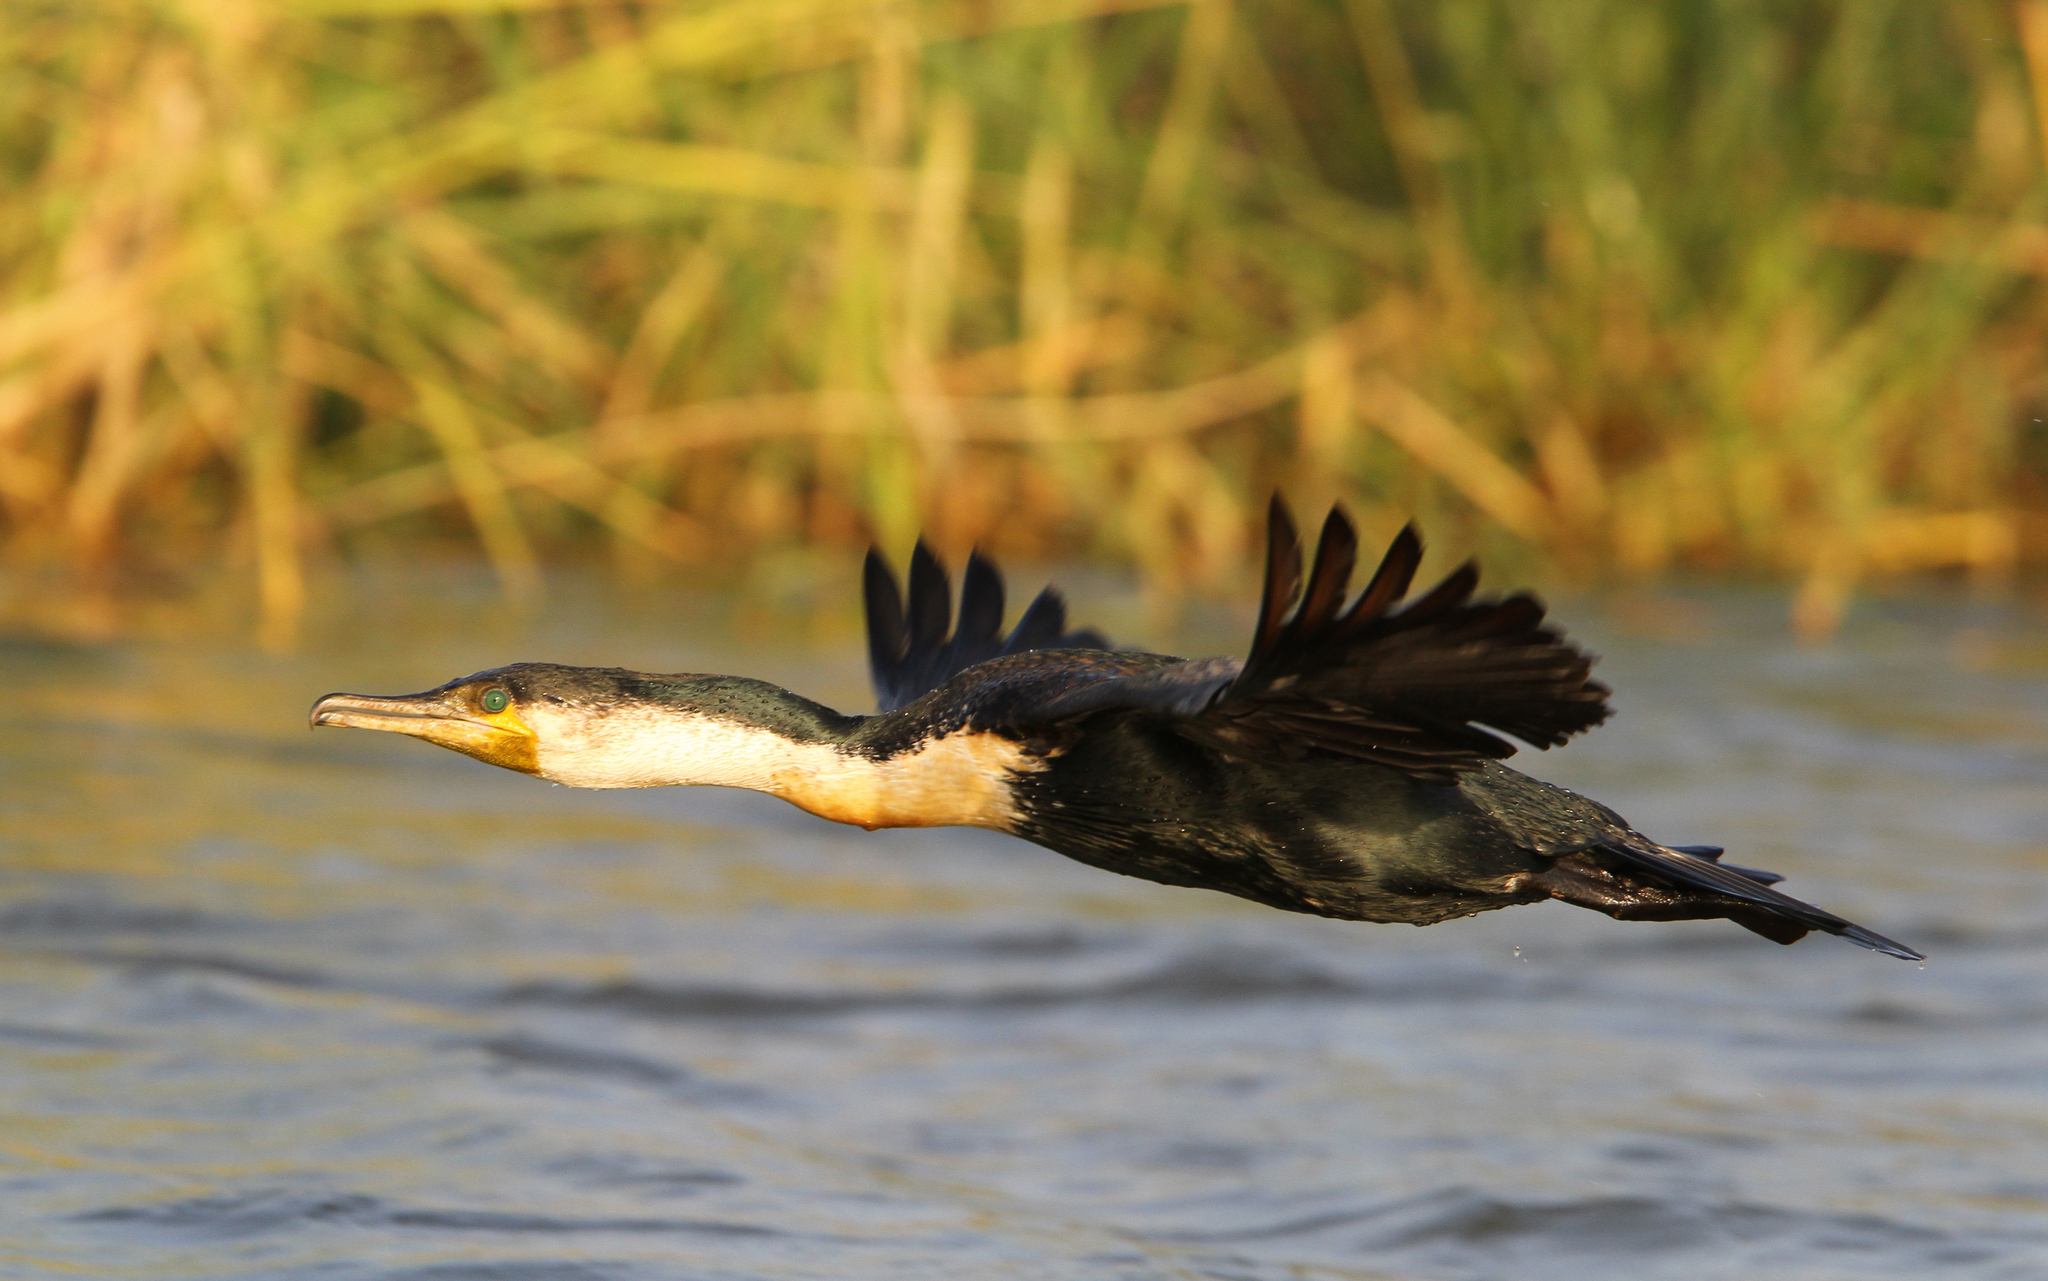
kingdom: Animalia
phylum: Chordata
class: Aves
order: Suliformes
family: Phalacrocoracidae
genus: Phalacrocorax
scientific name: Phalacrocorax carbo
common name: Great cormorant
